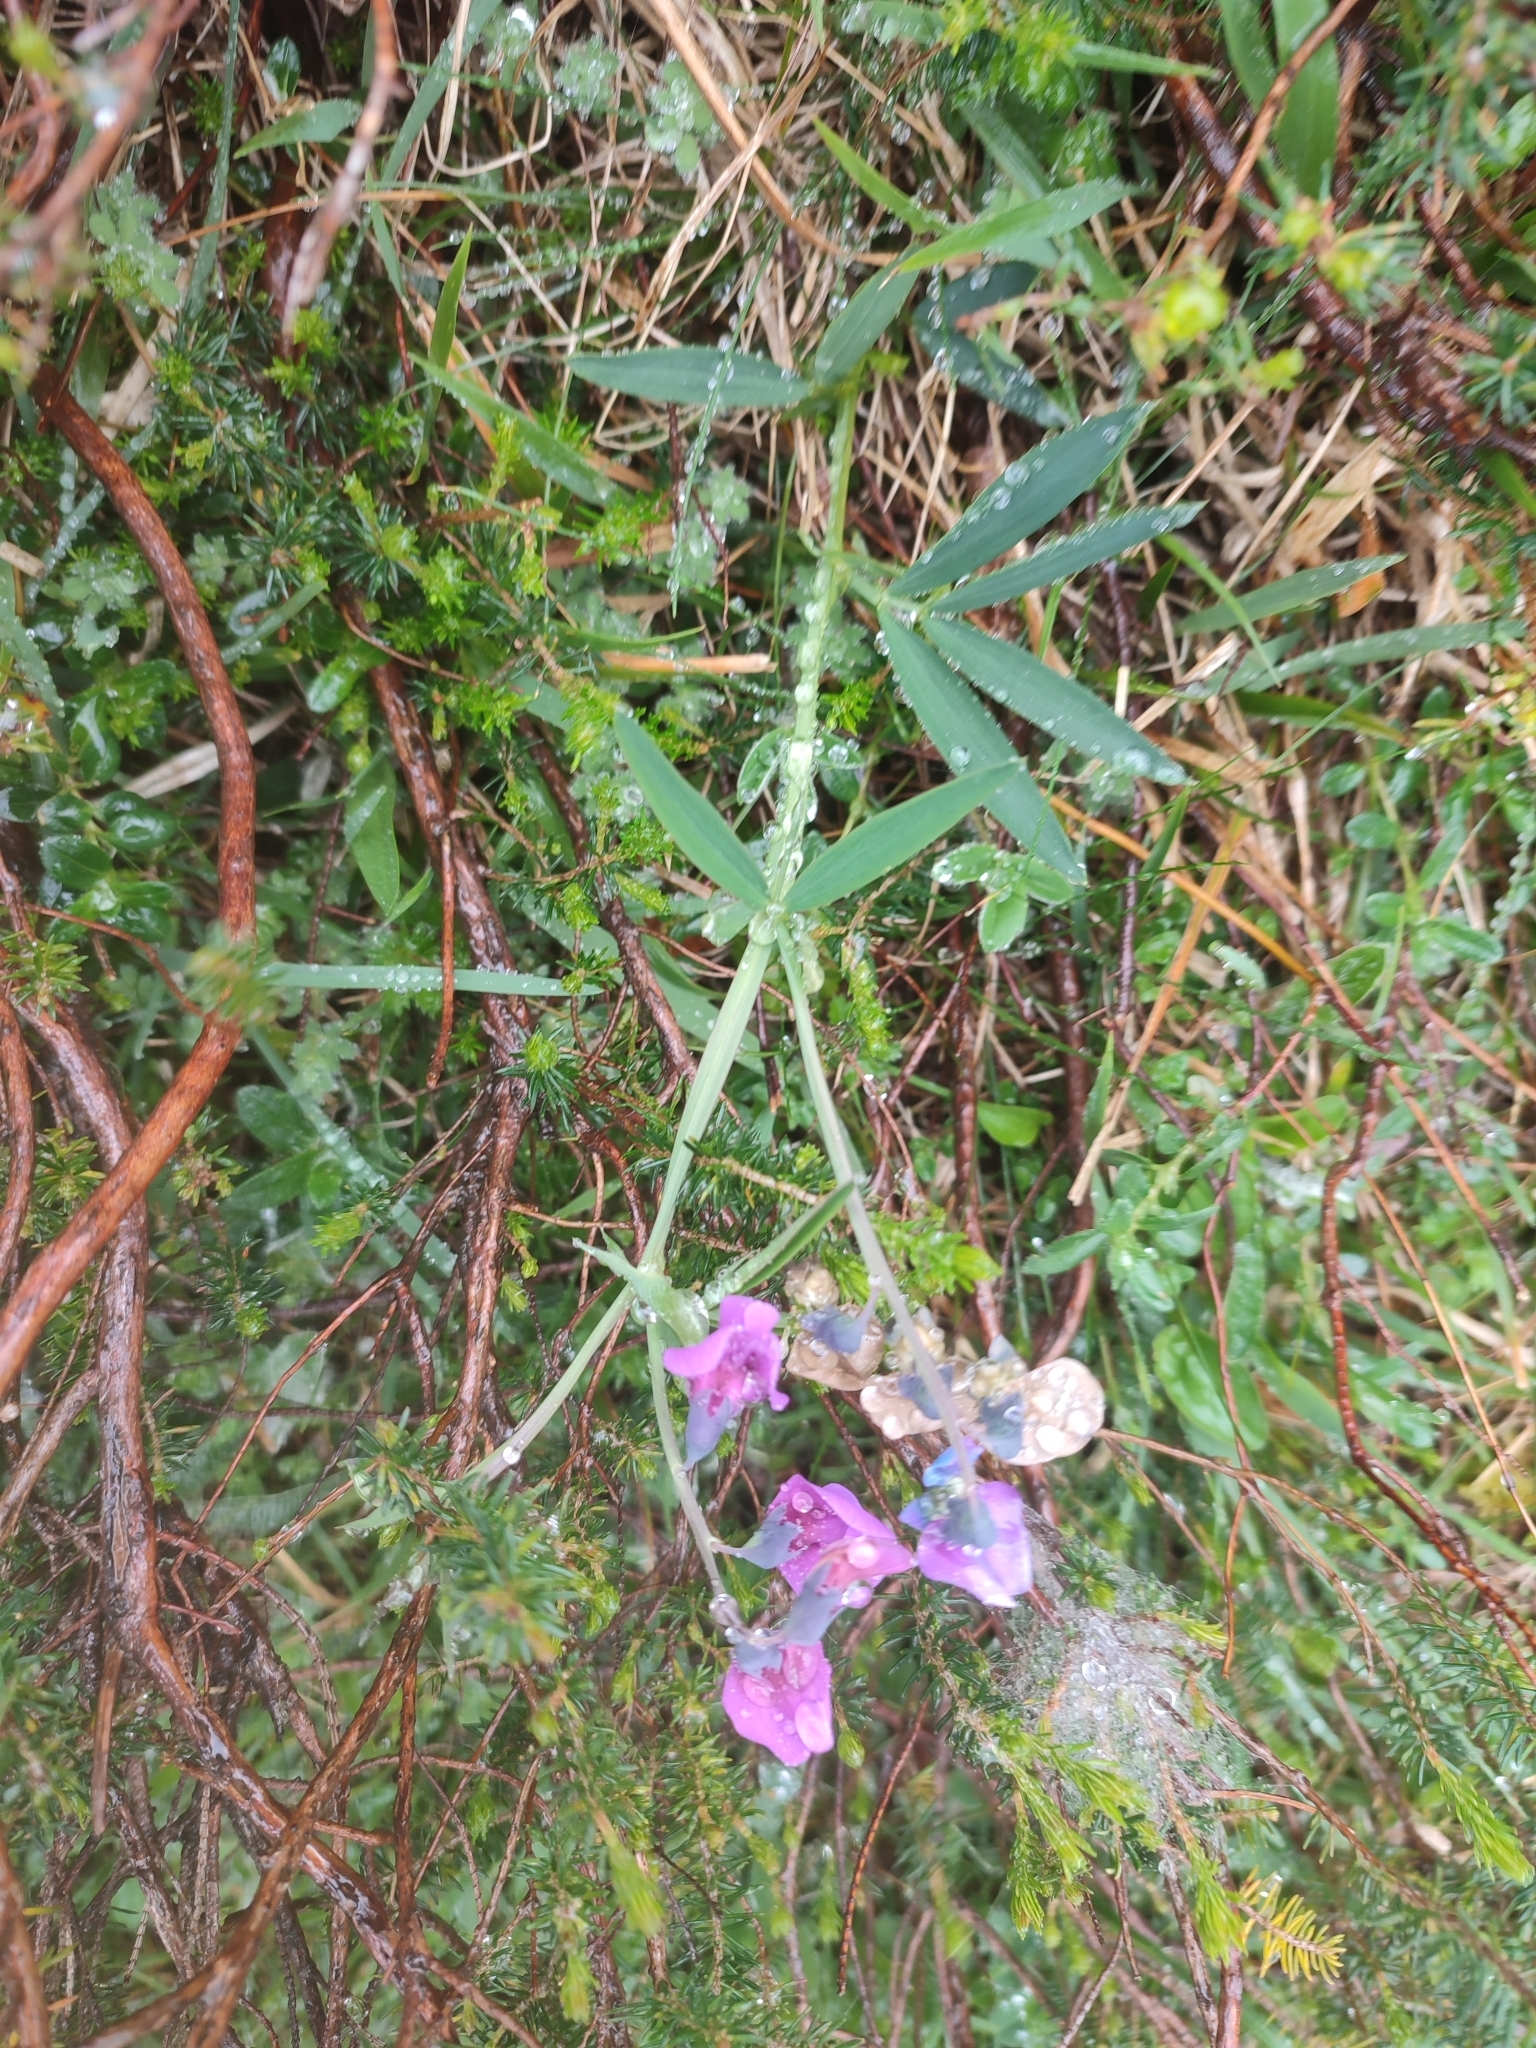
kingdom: Plantae
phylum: Tracheophyta
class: Magnoliopsida
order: Fabales
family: Fabaceae
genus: Lathyrus
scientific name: Lathyrus linifolius
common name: Bitter-vetch
